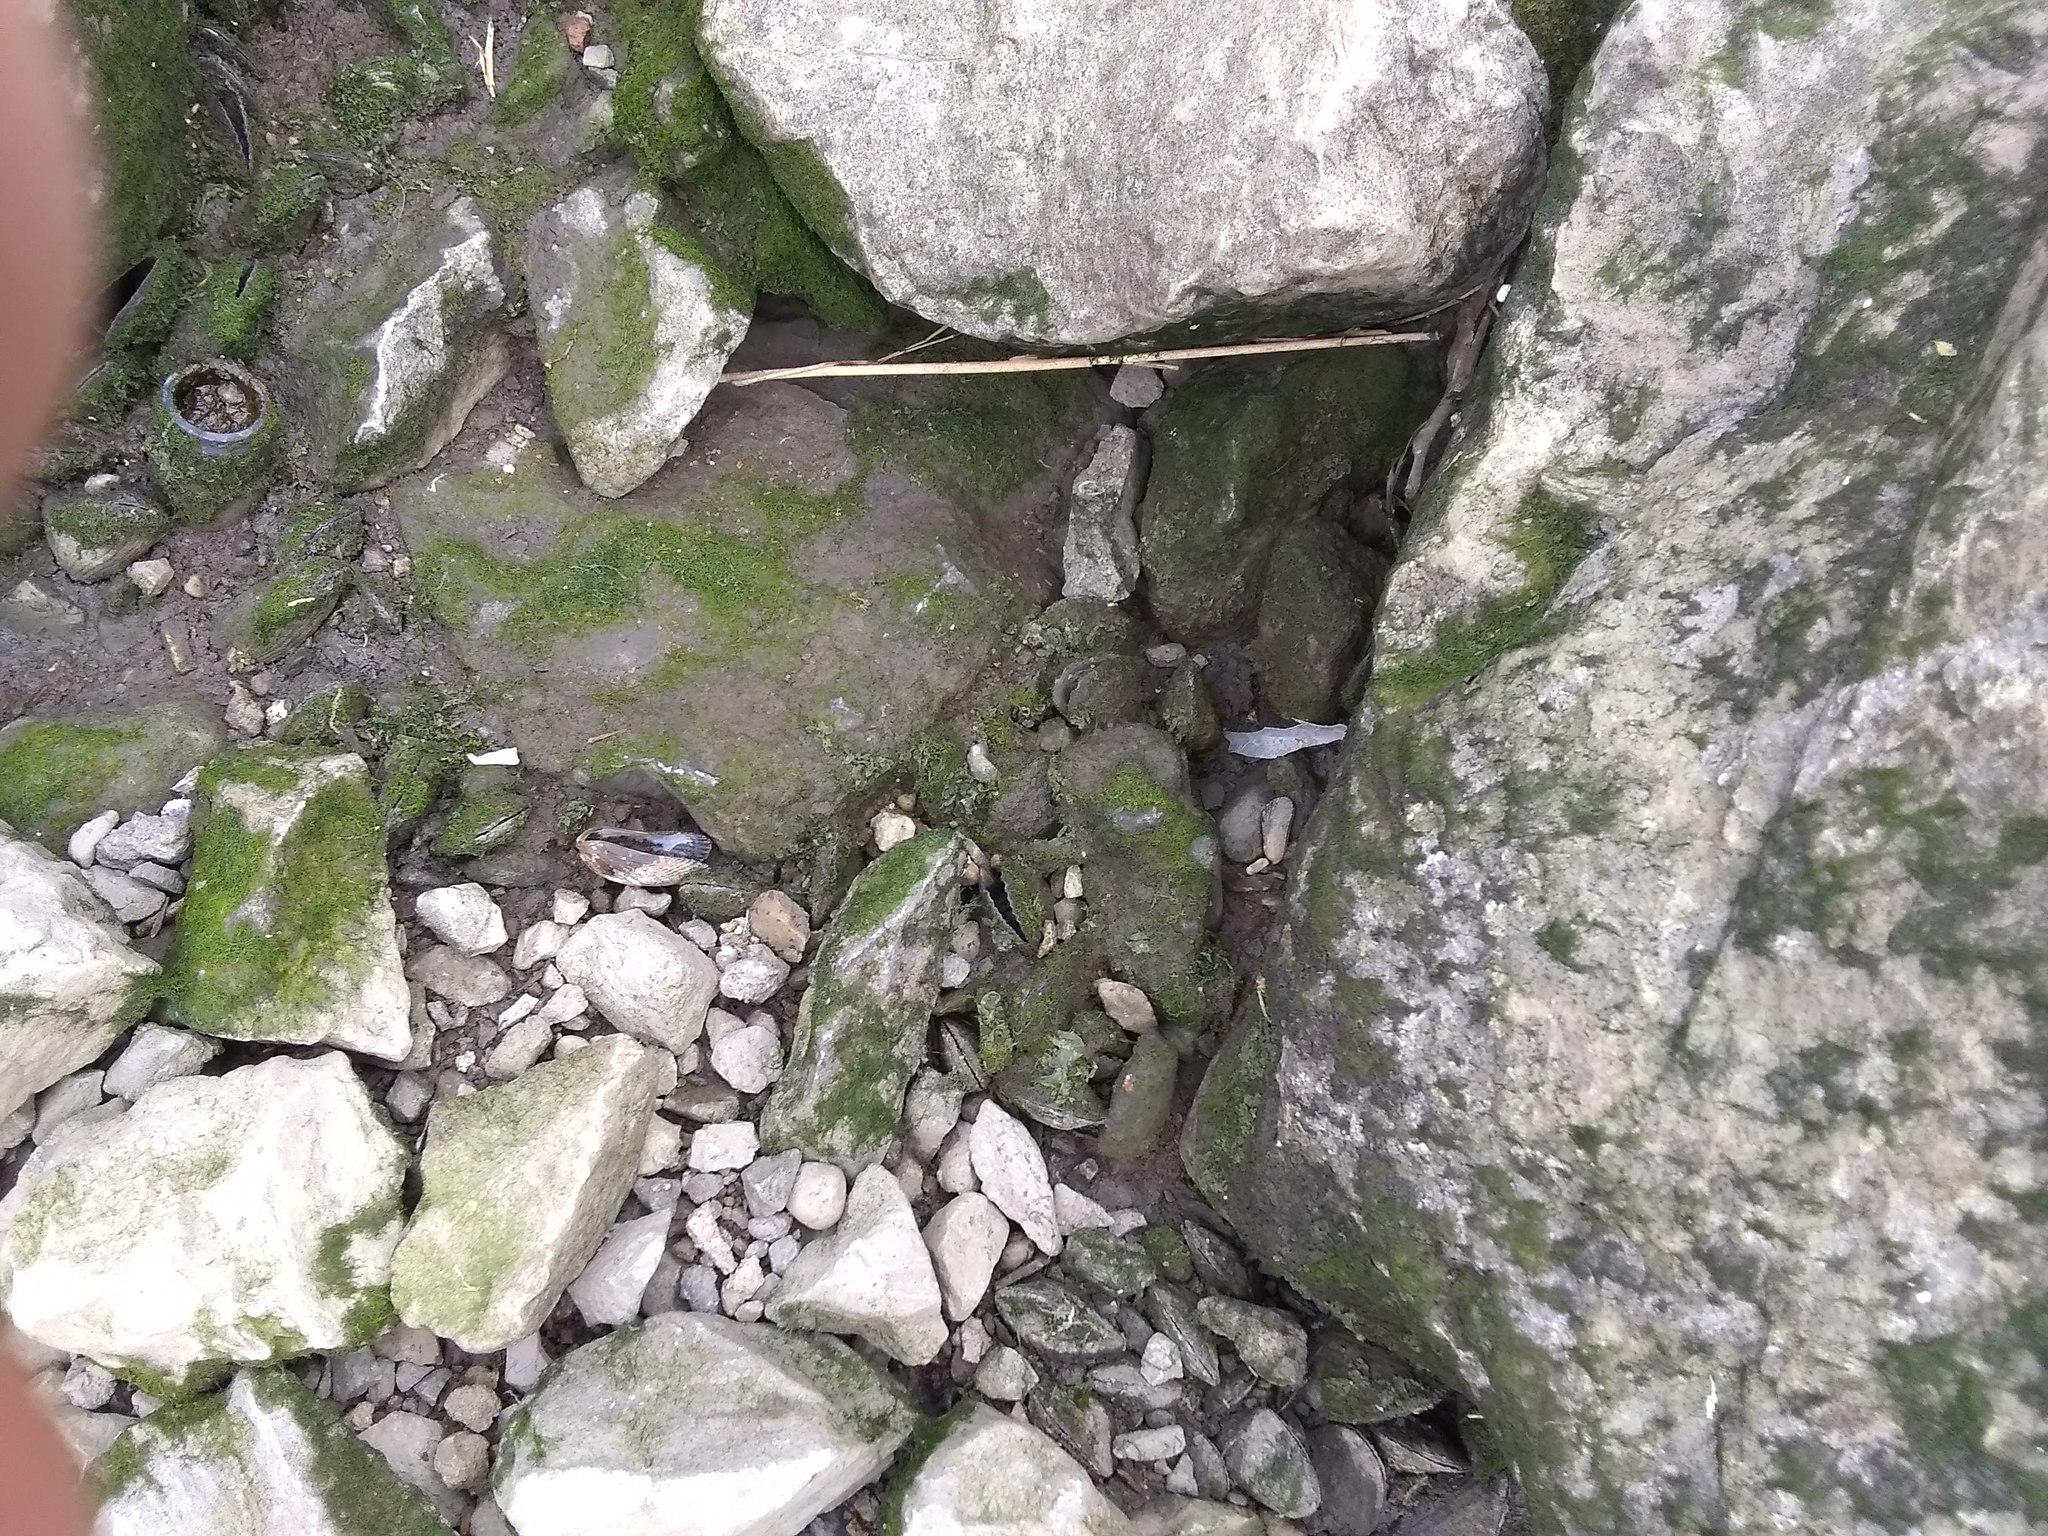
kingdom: Animalia
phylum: Mollusca
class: Bivalvia
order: Mytilida
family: Mytilidae
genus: Geukensia
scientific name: Geukensia demissa
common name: Ribbed mussel
